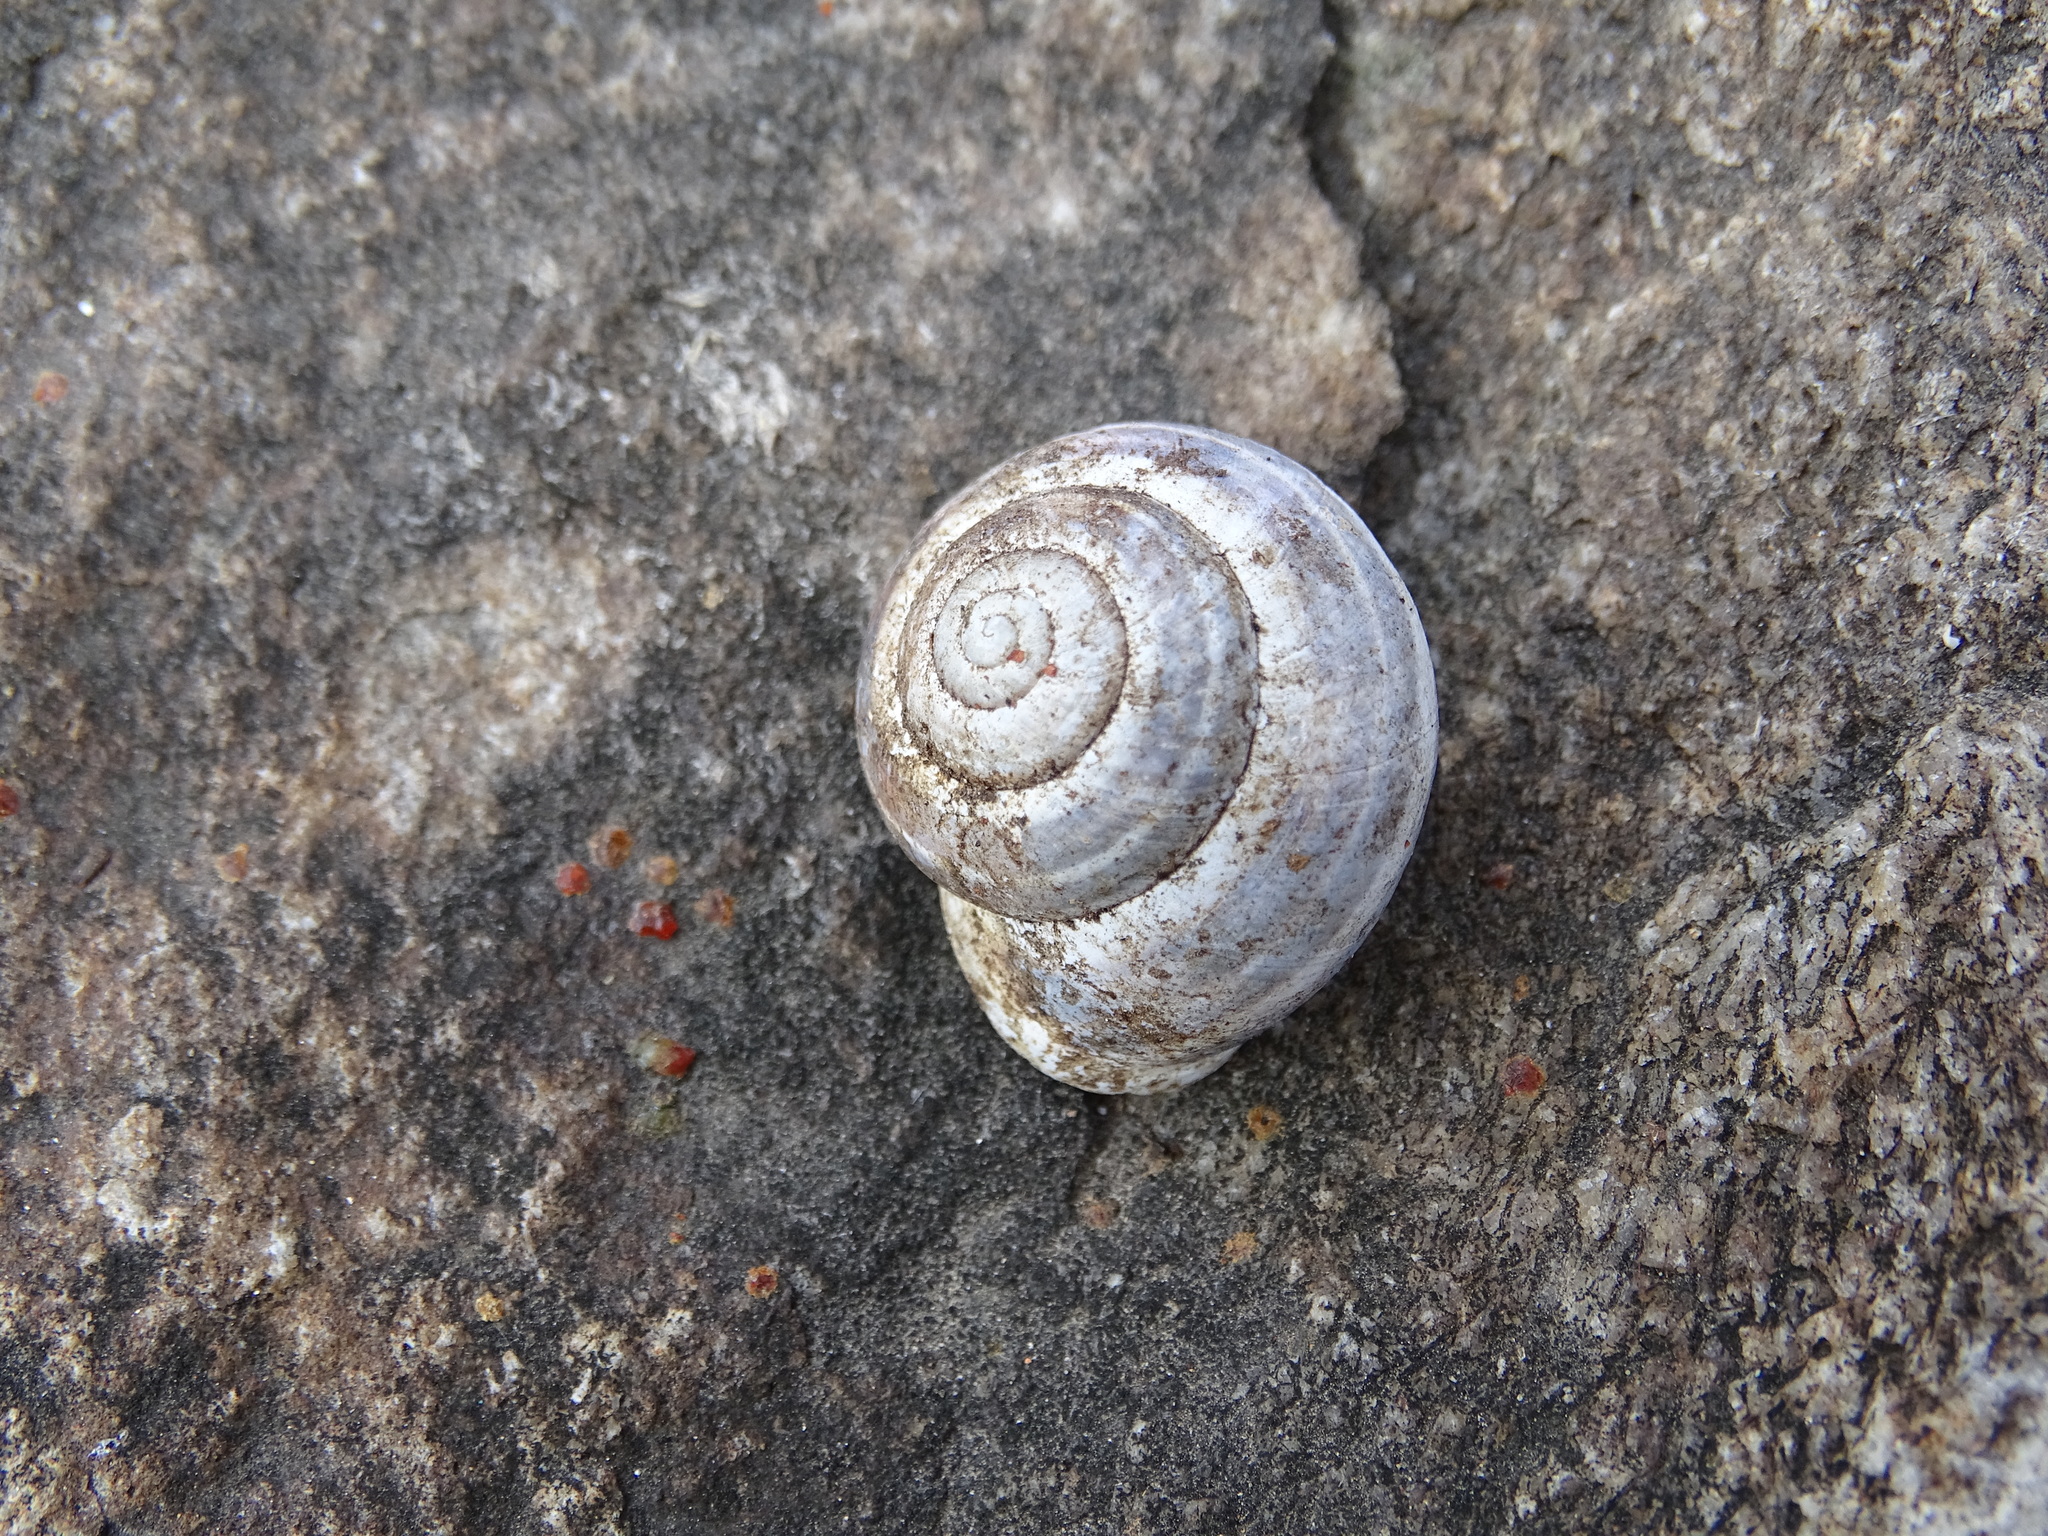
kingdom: Animalia
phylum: Mollusca
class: Gastropoda
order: Stylommatophora
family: Helicidae
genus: Cepaea
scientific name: Cepaea hortensis
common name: White-lip gardensnail
